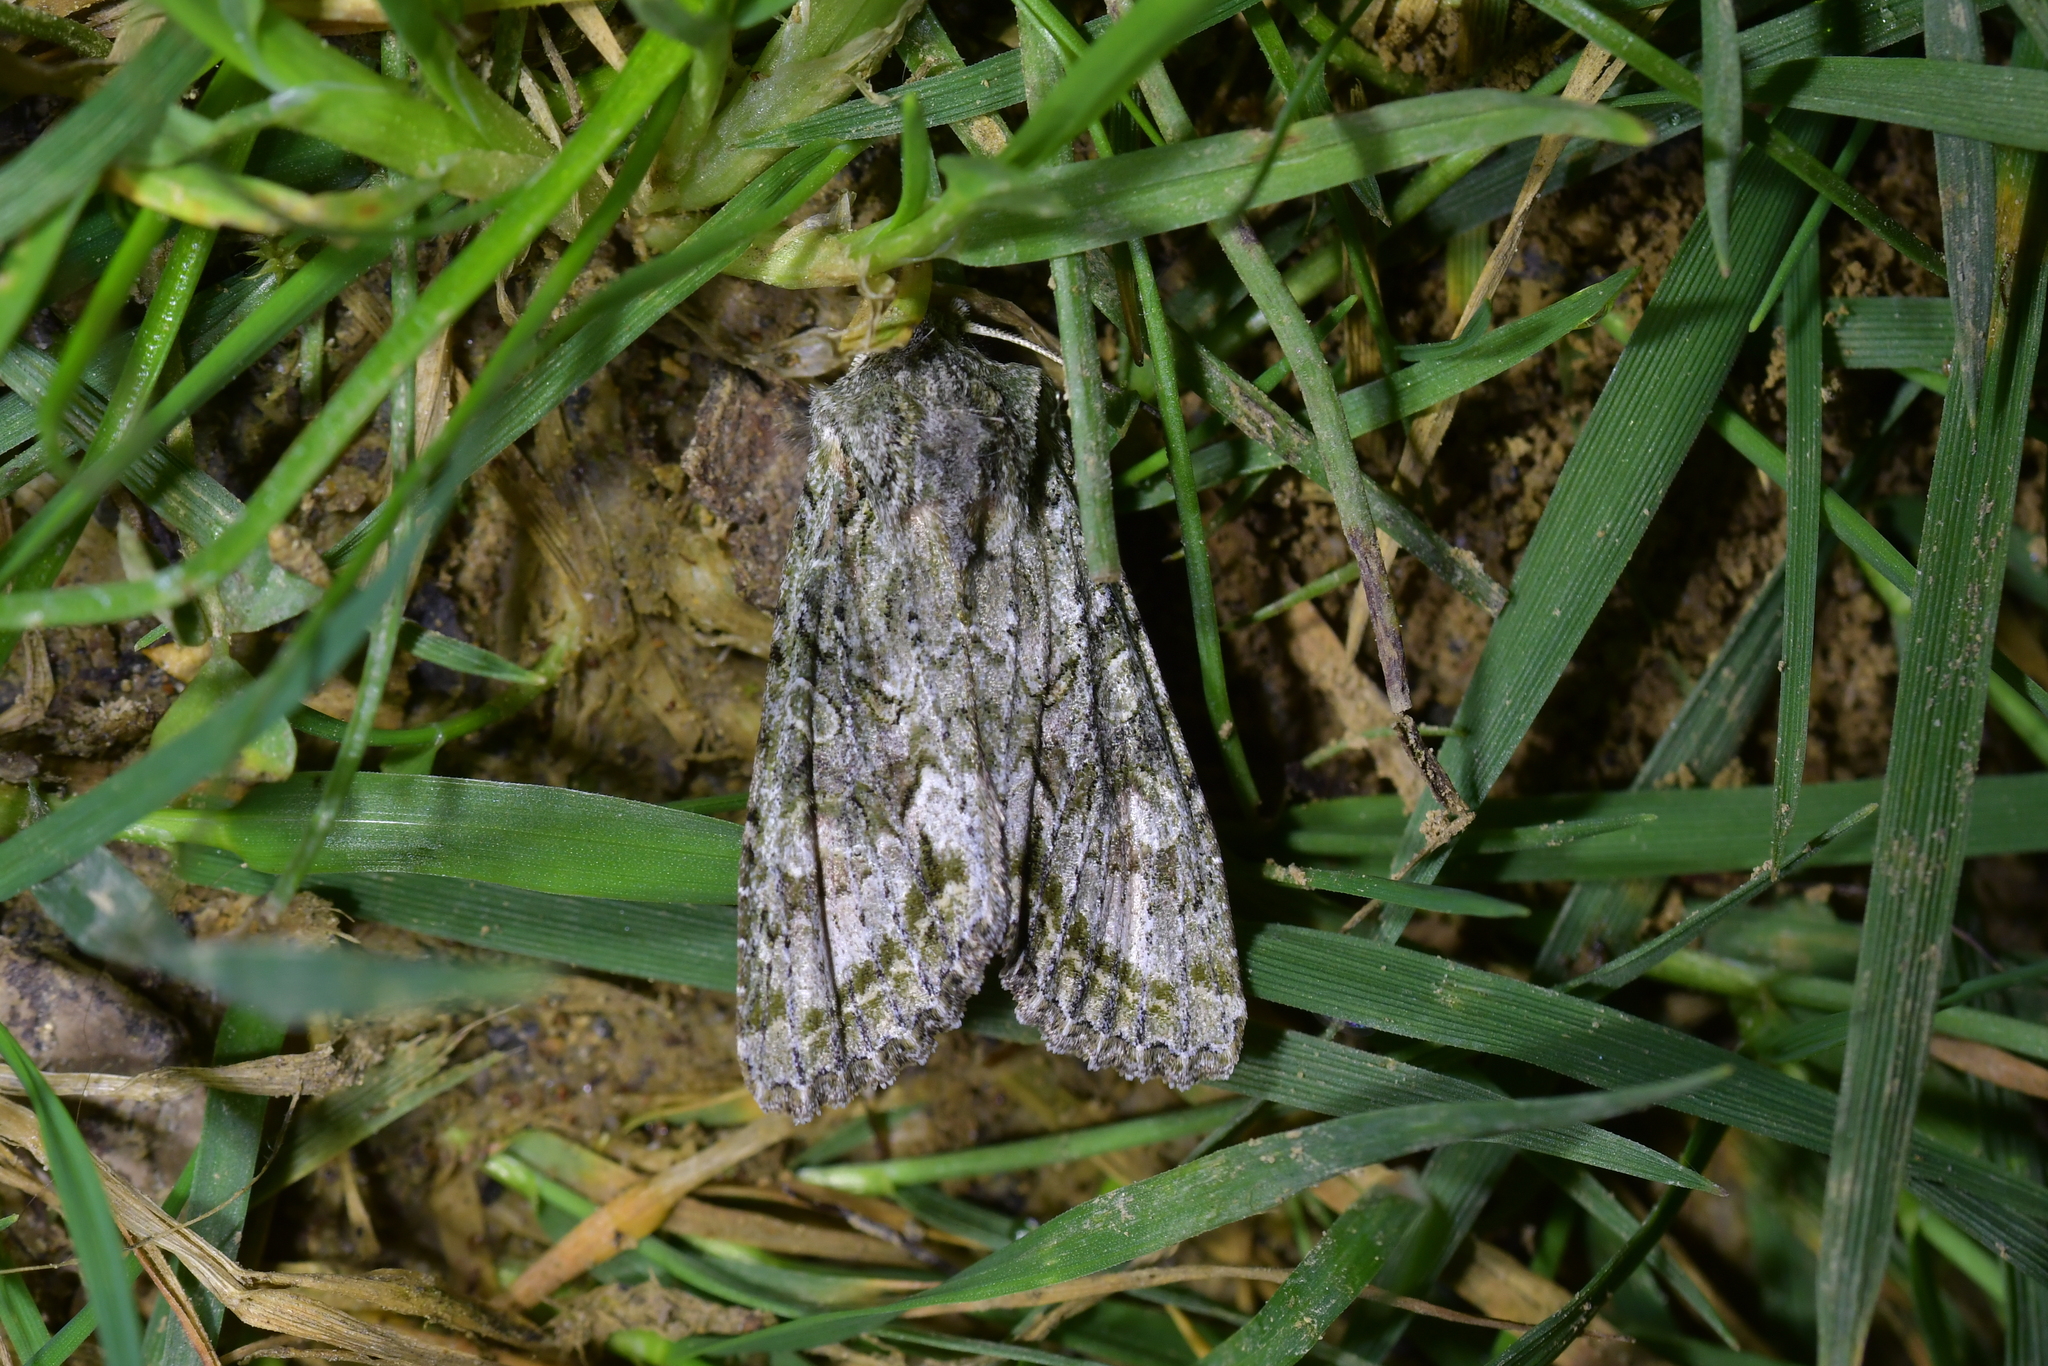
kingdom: Animalia
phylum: Arthropoda
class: Insecta
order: Lepidoptera
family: Noctuidae
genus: Ichneutica
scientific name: Ichneutica mutans
